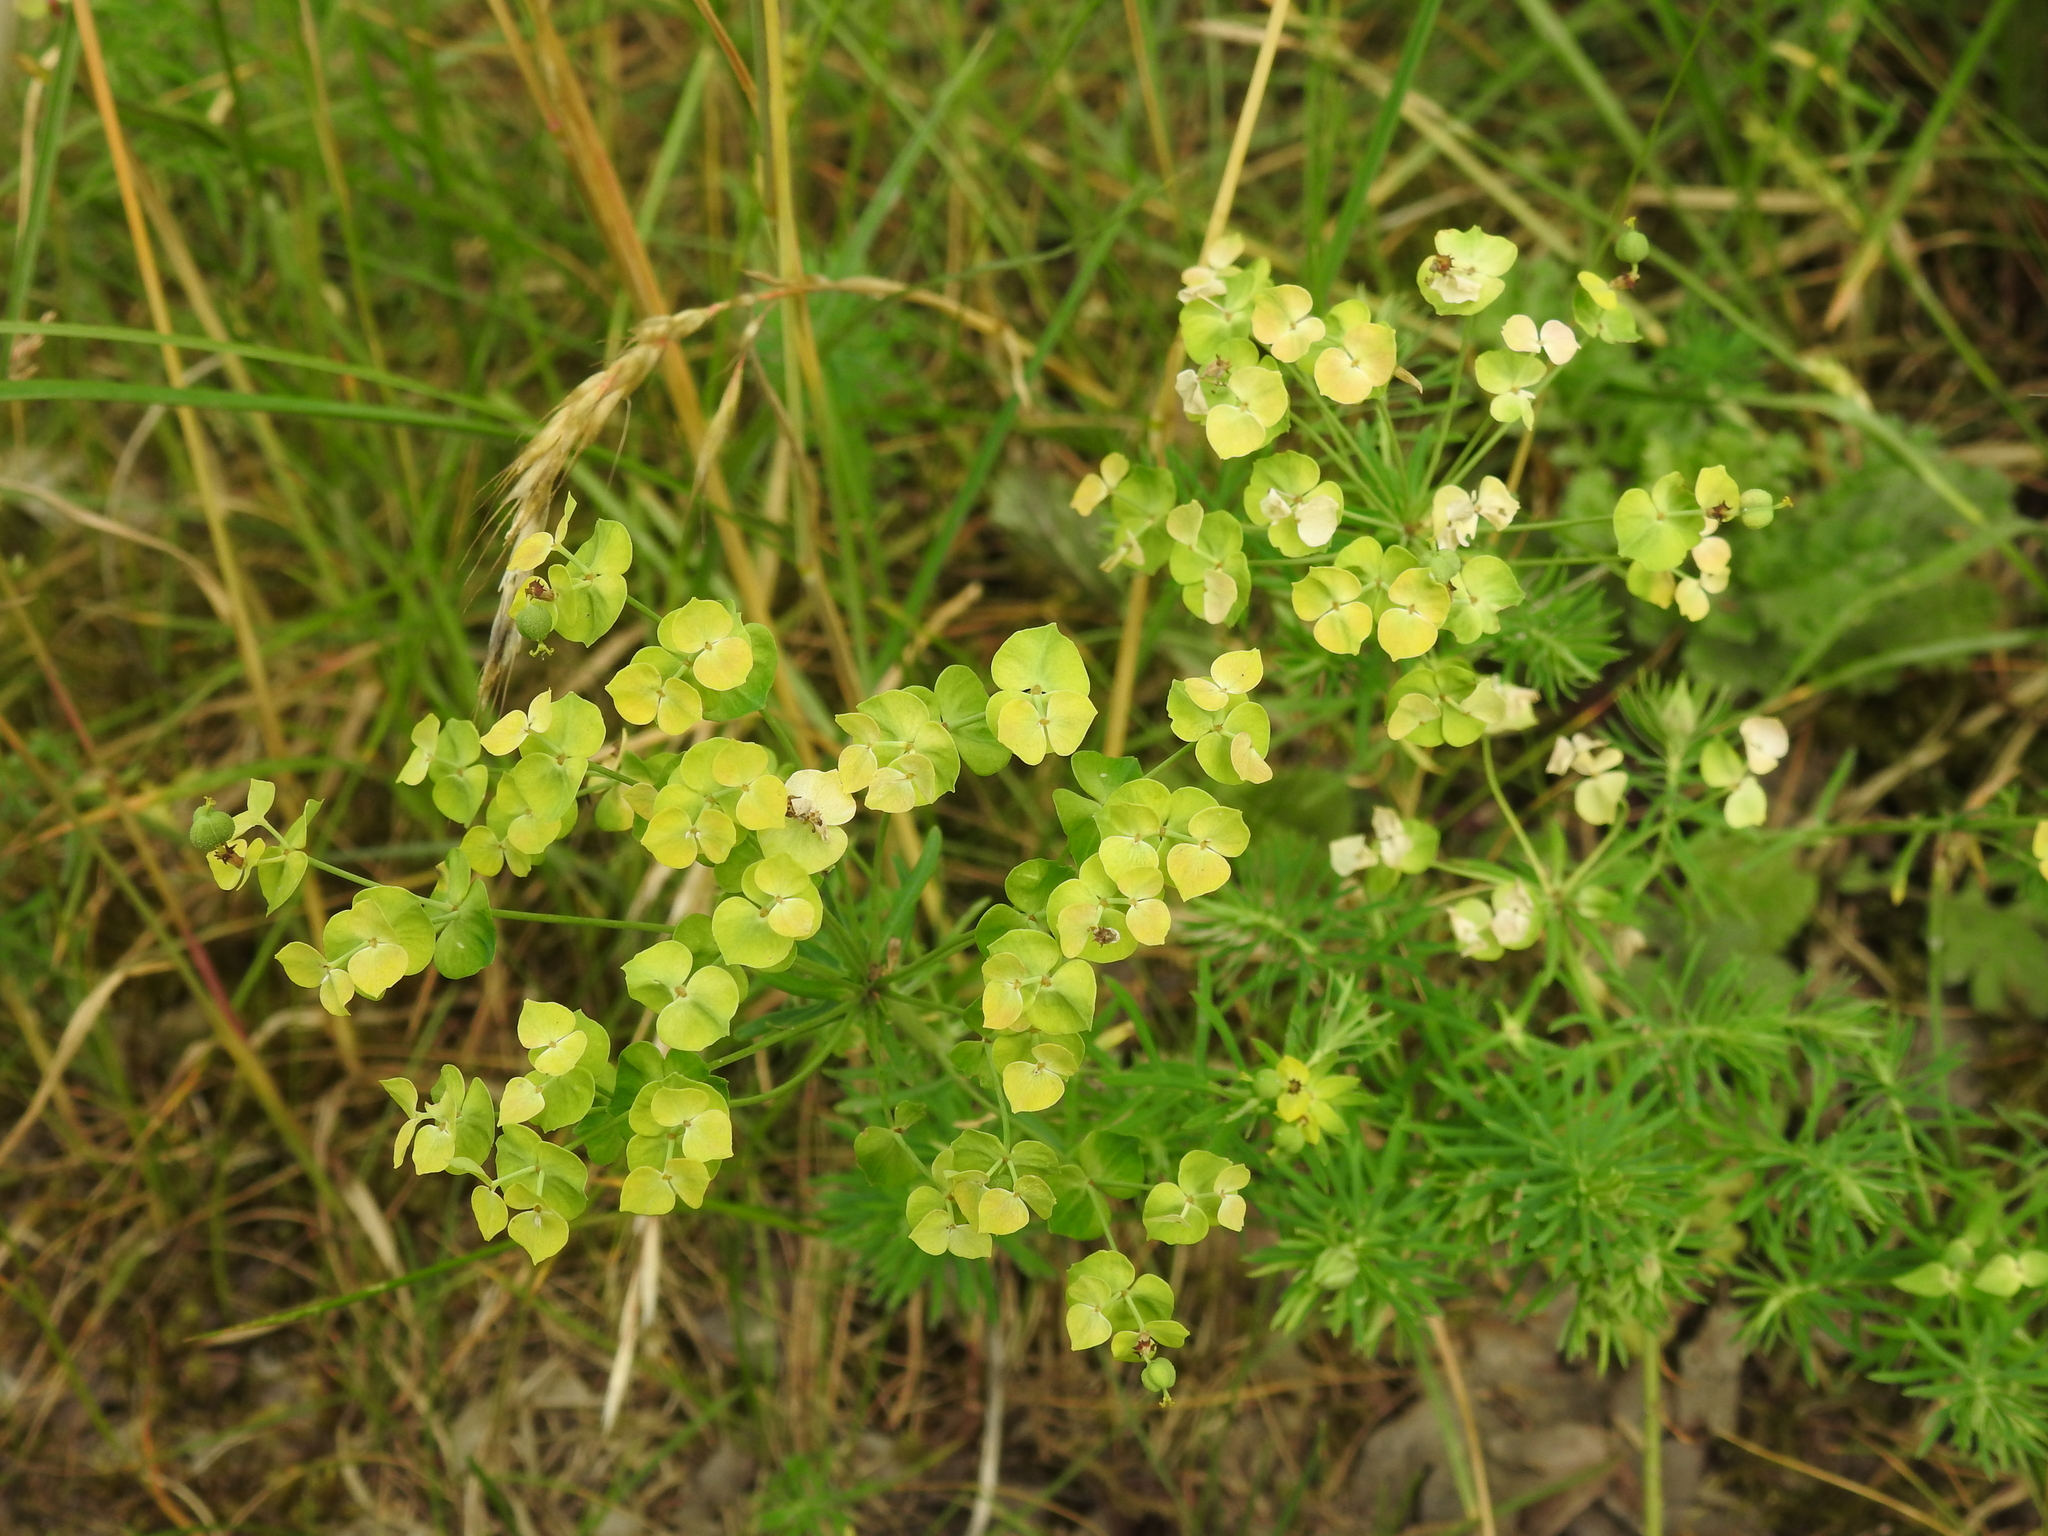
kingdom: Plantae
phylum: Tracheophyta
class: Magnoliopsida
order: Malpighiales
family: Euphorbiaceae
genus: Euphorbia
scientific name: Euphorbia cyparissias
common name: Cypress spurge
